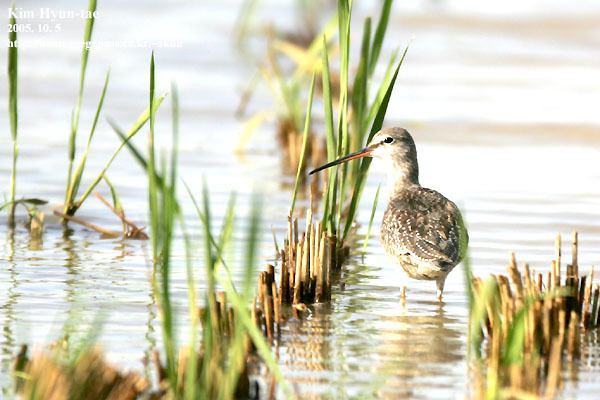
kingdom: Animalia
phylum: Chordata
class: Aves
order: Charadriiformes
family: Scolopacidae
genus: Tringa
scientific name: Tringa erythropus
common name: Spotted redshank
